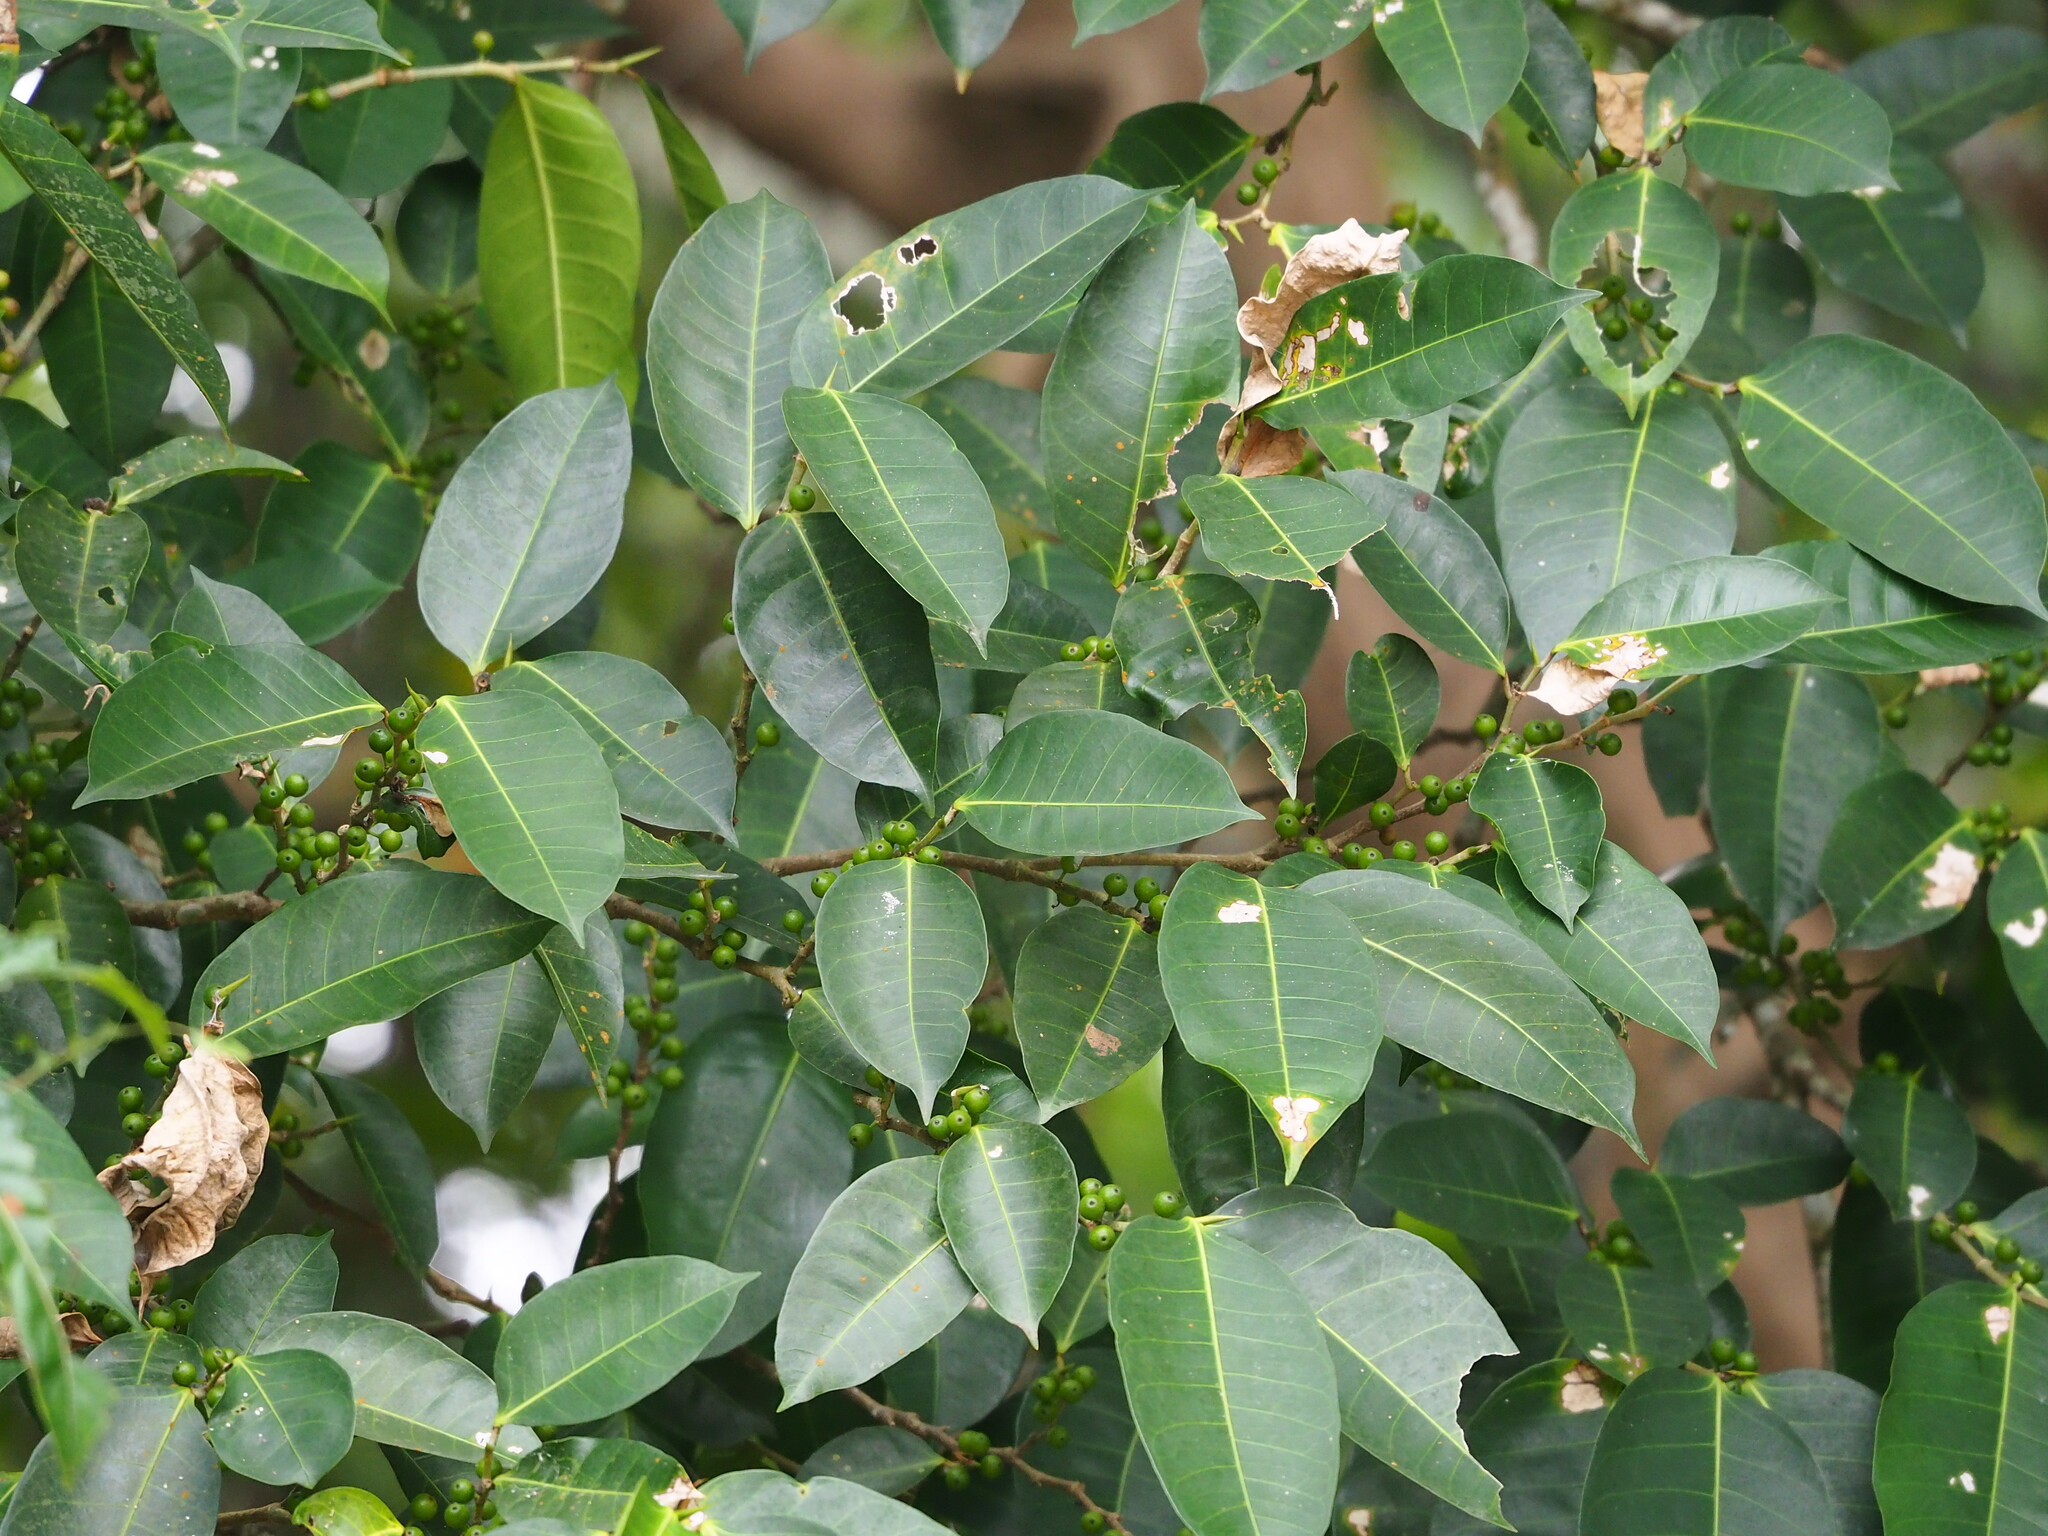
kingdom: Plantae
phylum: Tracheophyta
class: Magnoliopsida
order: Rosales
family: Moraceae
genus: Ficus
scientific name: Ficus virgata
